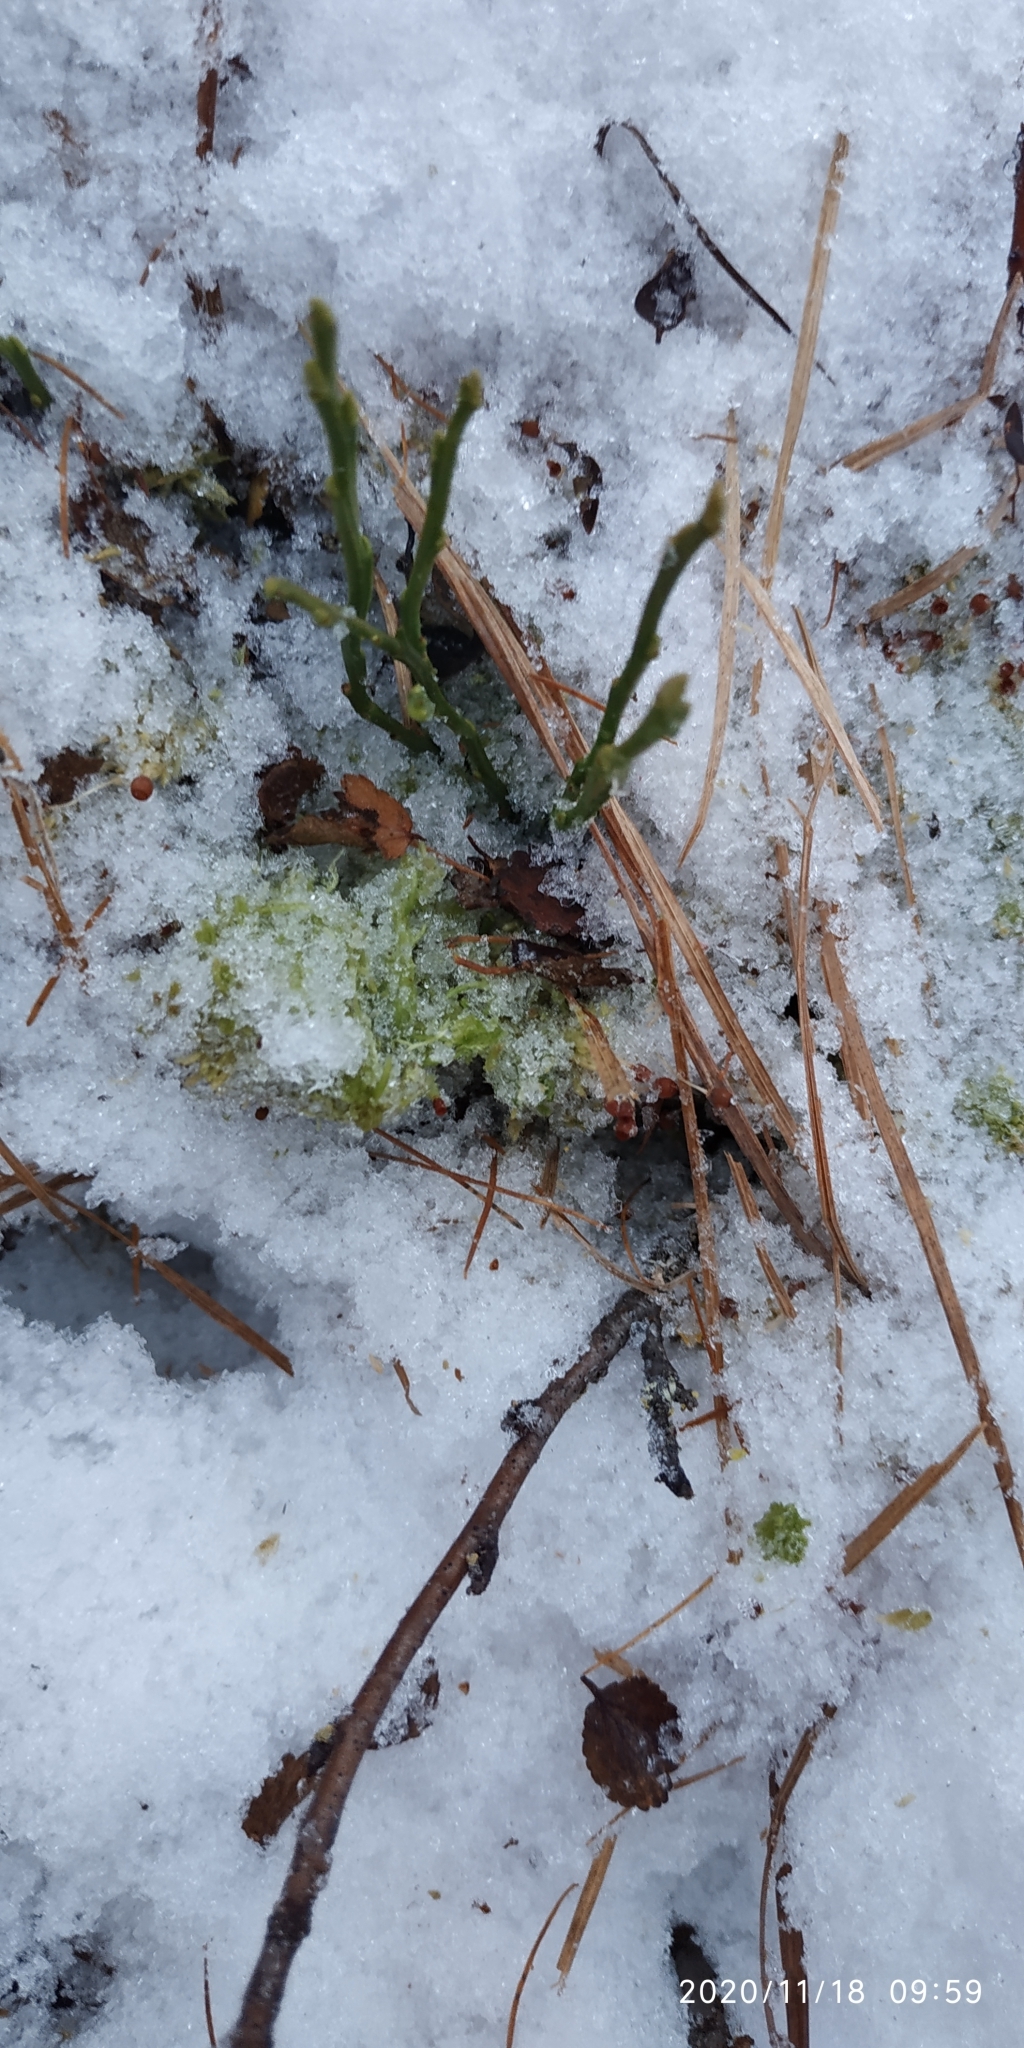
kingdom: Plantae
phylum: Tracheophyta
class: Magnoliopsida
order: Ericales
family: Ericaceae
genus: Vaccinium
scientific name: Vaccinium myrtillus
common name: Bilberry
